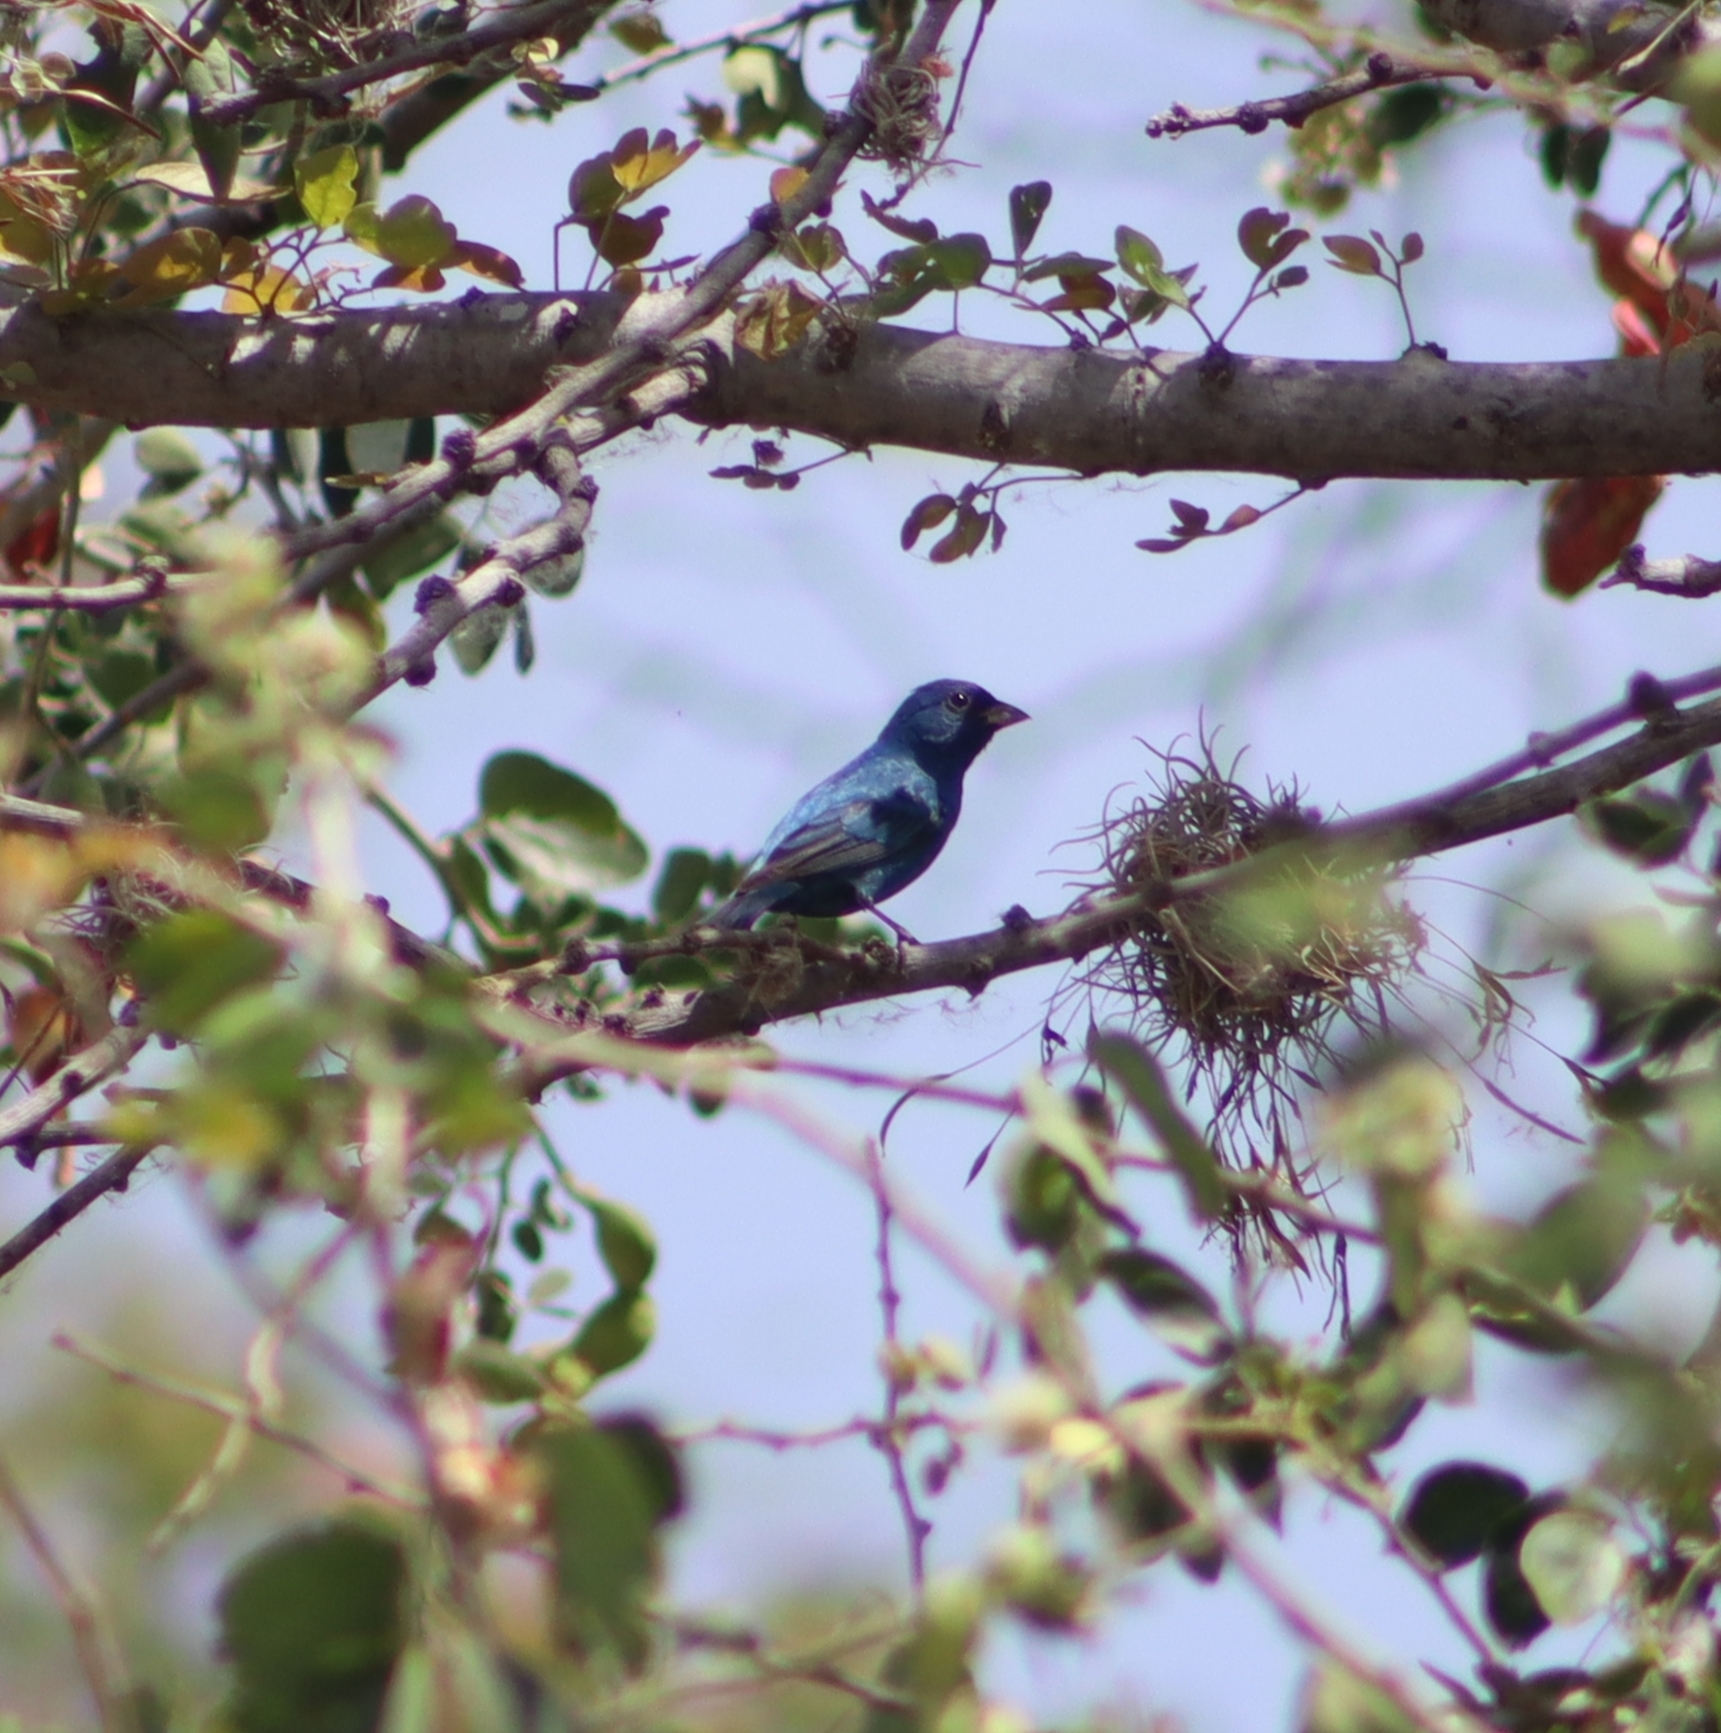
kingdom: Animalia
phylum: Chordata
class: Aves
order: Passeriformes
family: Cardinalidae
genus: Passerina
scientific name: Passerina cyanea
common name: Indigo bunting
